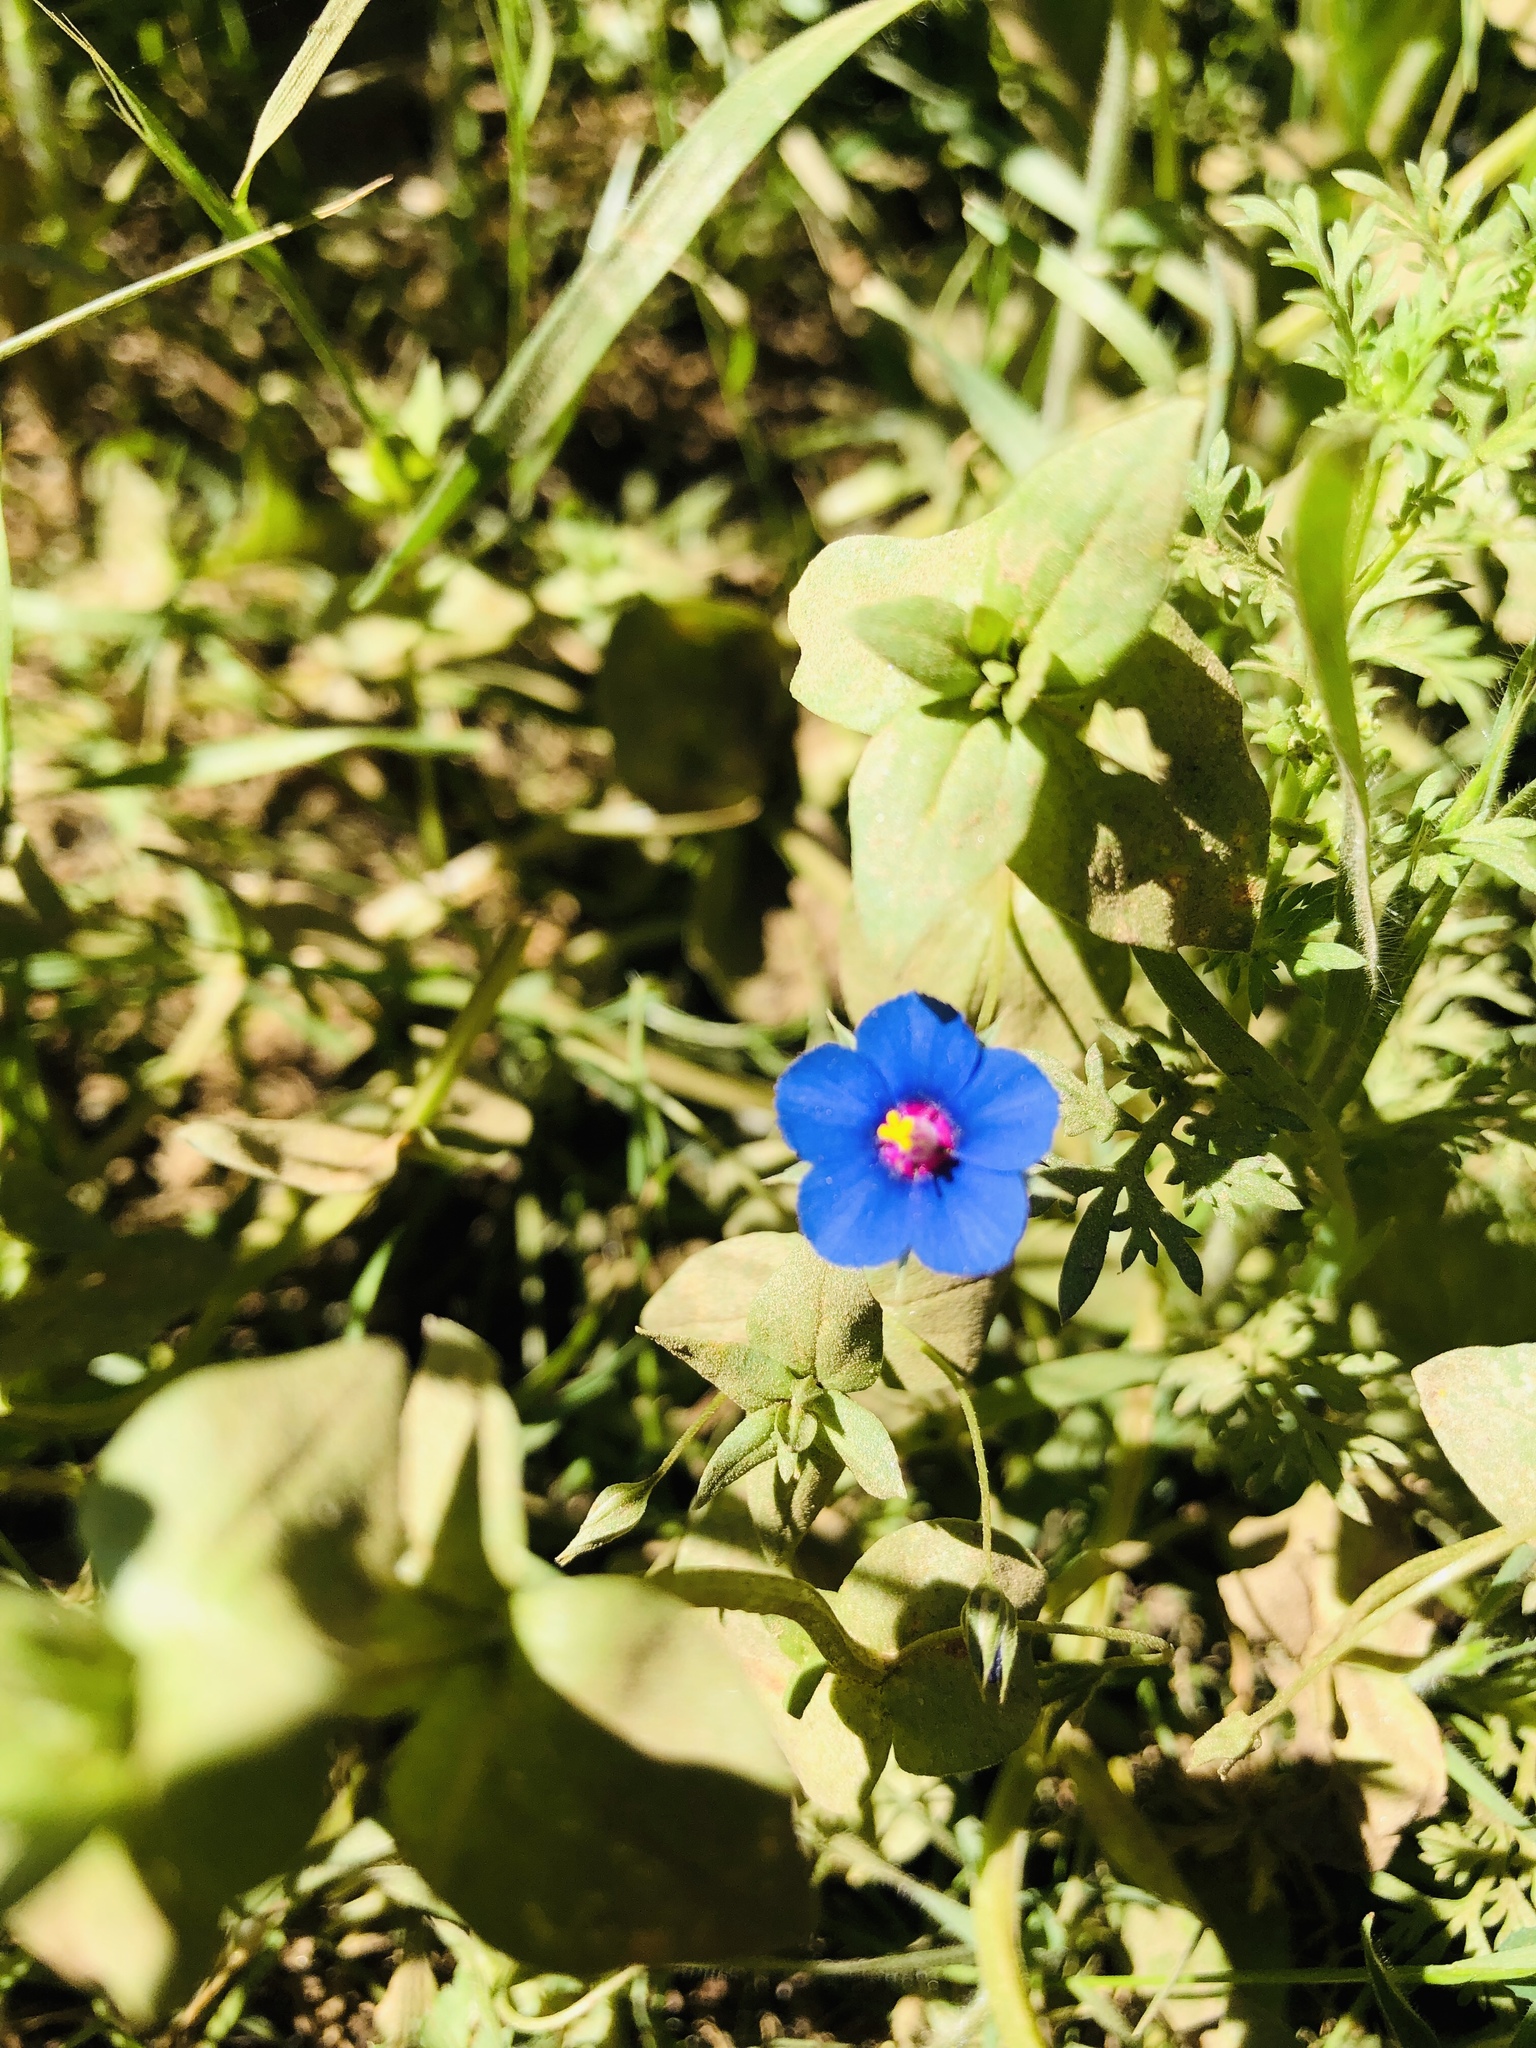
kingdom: Plantae
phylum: Tracheophyta
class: Magnoliopsida
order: Ericales
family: Primulaceae
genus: Lysimachia
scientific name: Lysimachia arvensis
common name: Scarlet pimpernel
